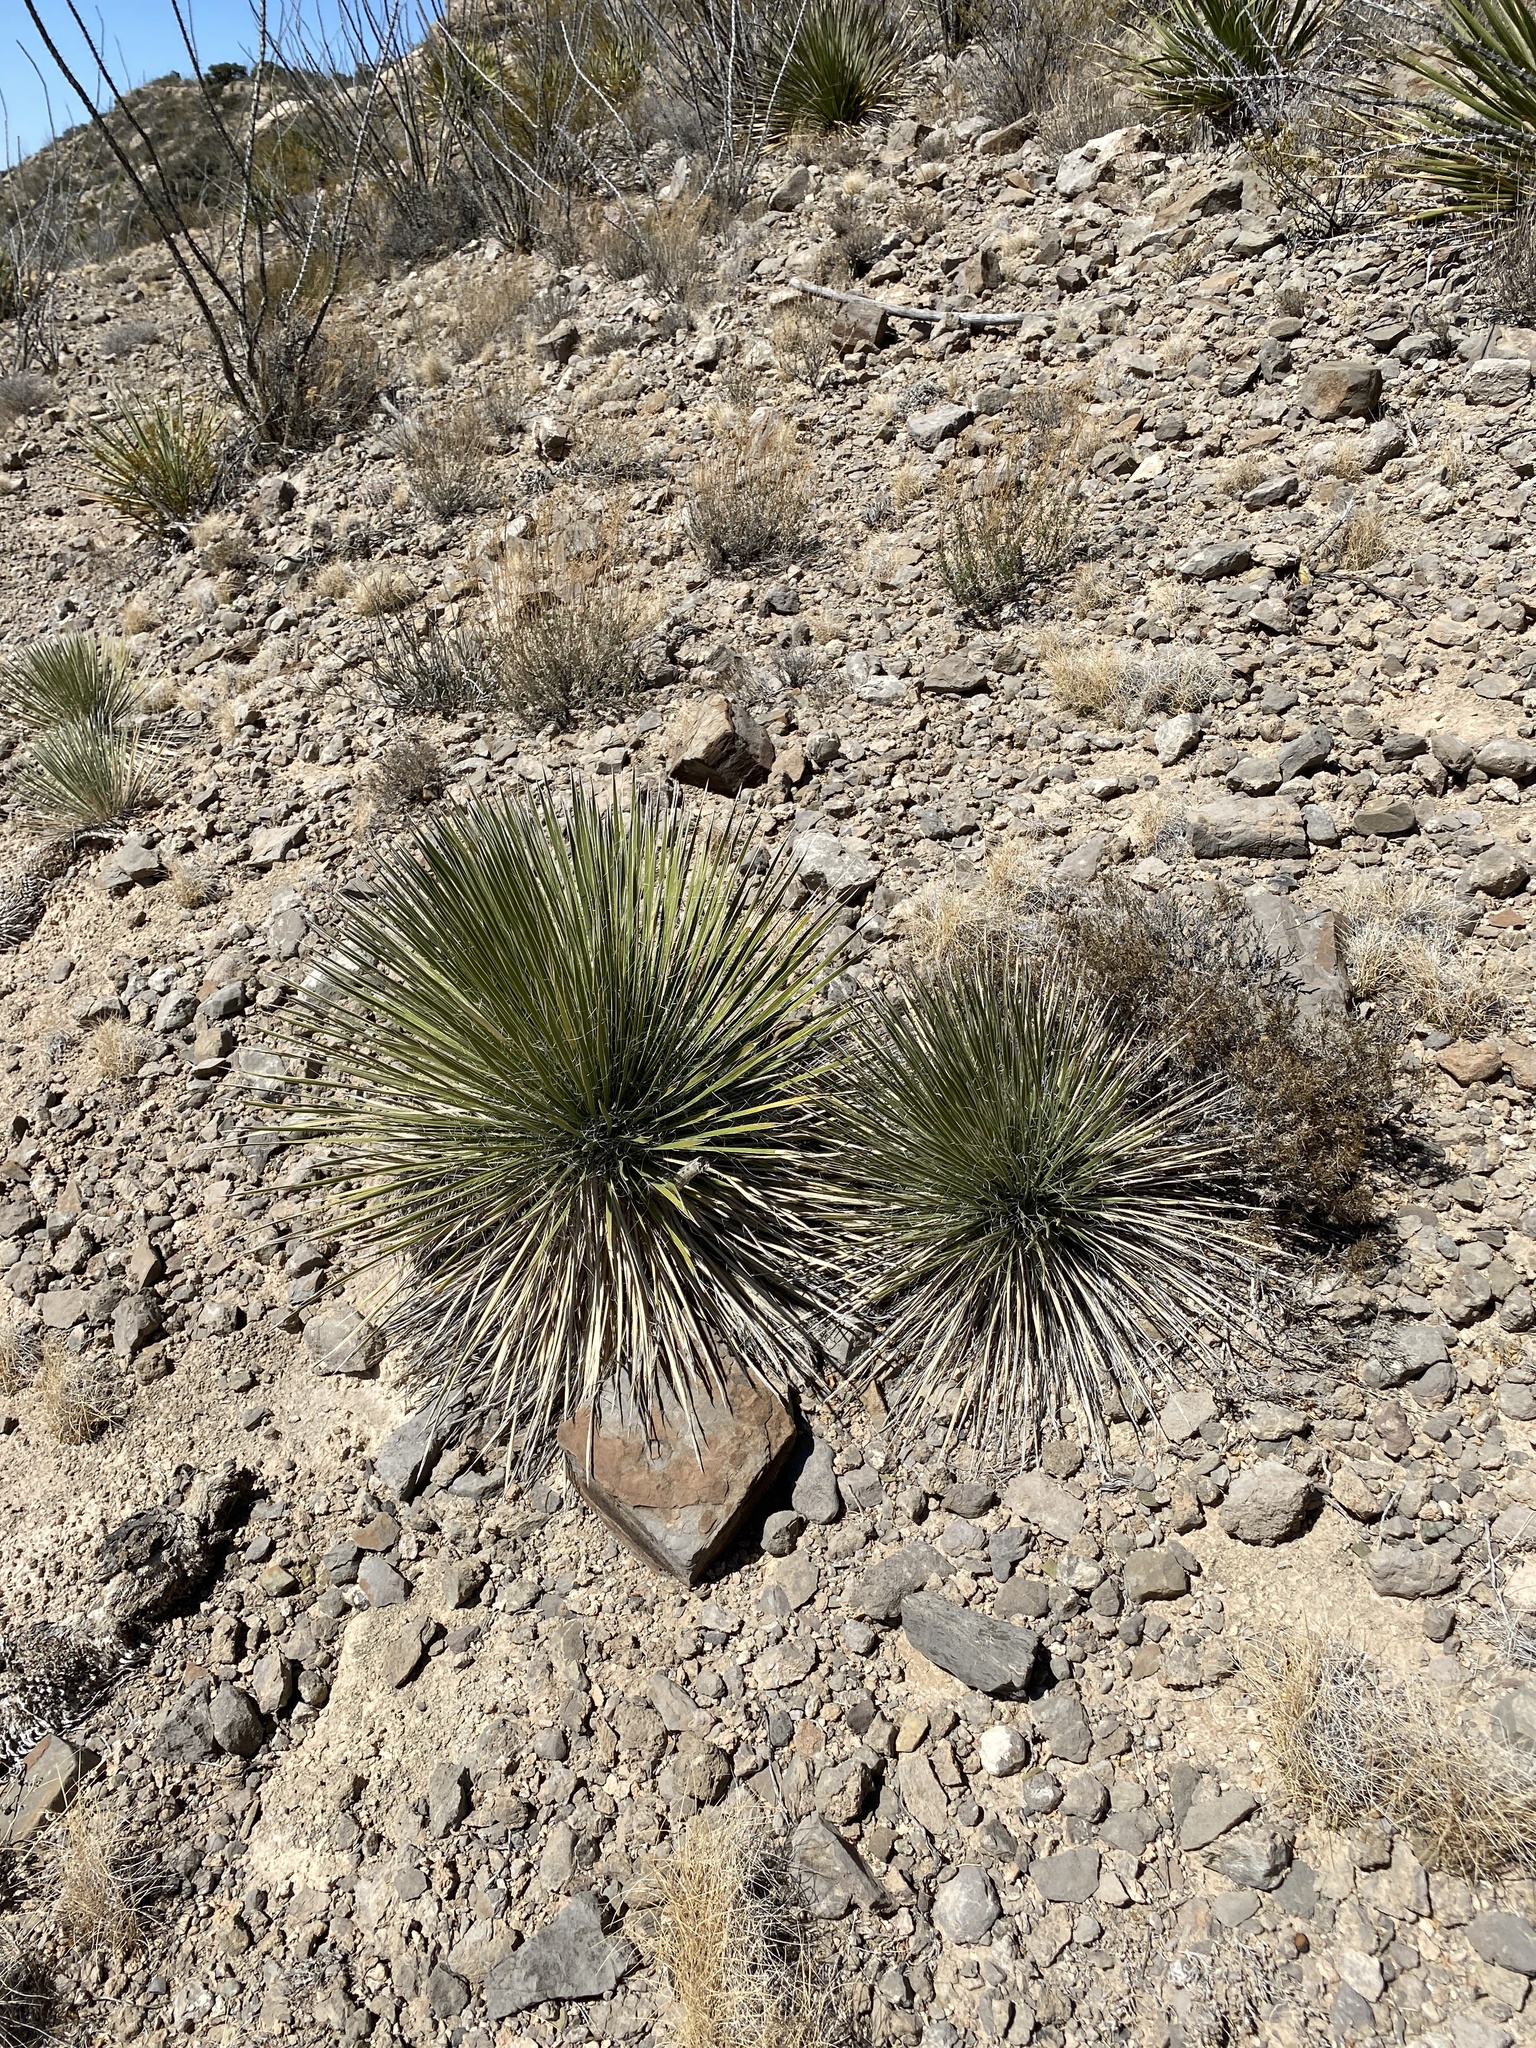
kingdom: Plantae
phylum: Tracheophyta
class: Liliopsida
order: Asparagales
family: Asparagaceae
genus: Yucca
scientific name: Yucca elata
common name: Palmella
